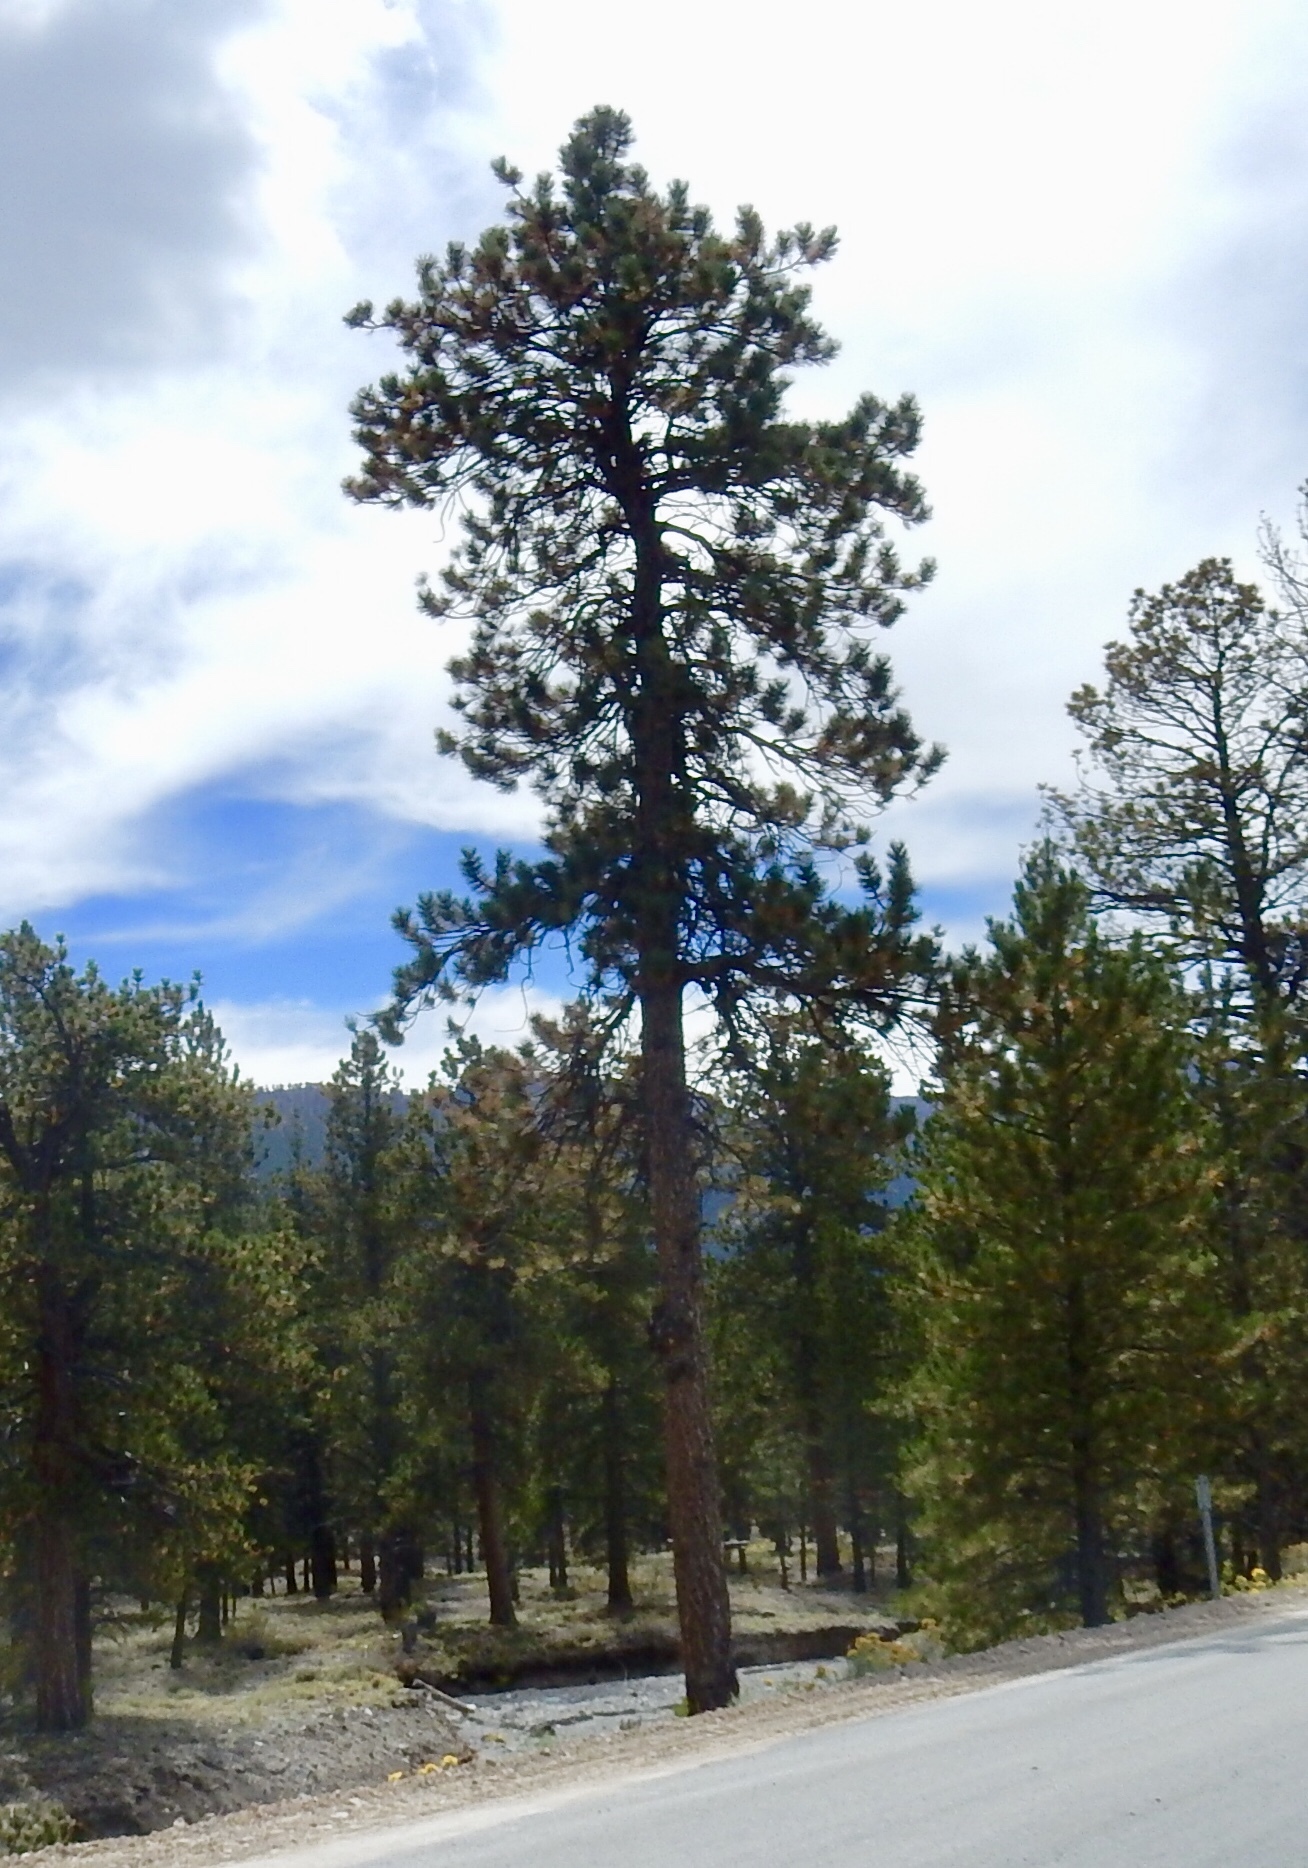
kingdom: Plantae
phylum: Tracheophyta
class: Pinopsida
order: Pinales
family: Pinaceae
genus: Pinus
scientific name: Pinus ponderosa
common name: Western yellow-pine
